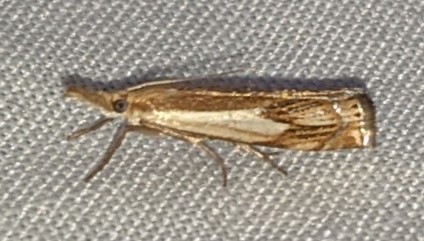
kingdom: Animalia
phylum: Arthropoda
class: Insecta
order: Lepidoptera
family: Crambidae
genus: Crambus
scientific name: Crambus agitatellus
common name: Double-banded grass-veneer
